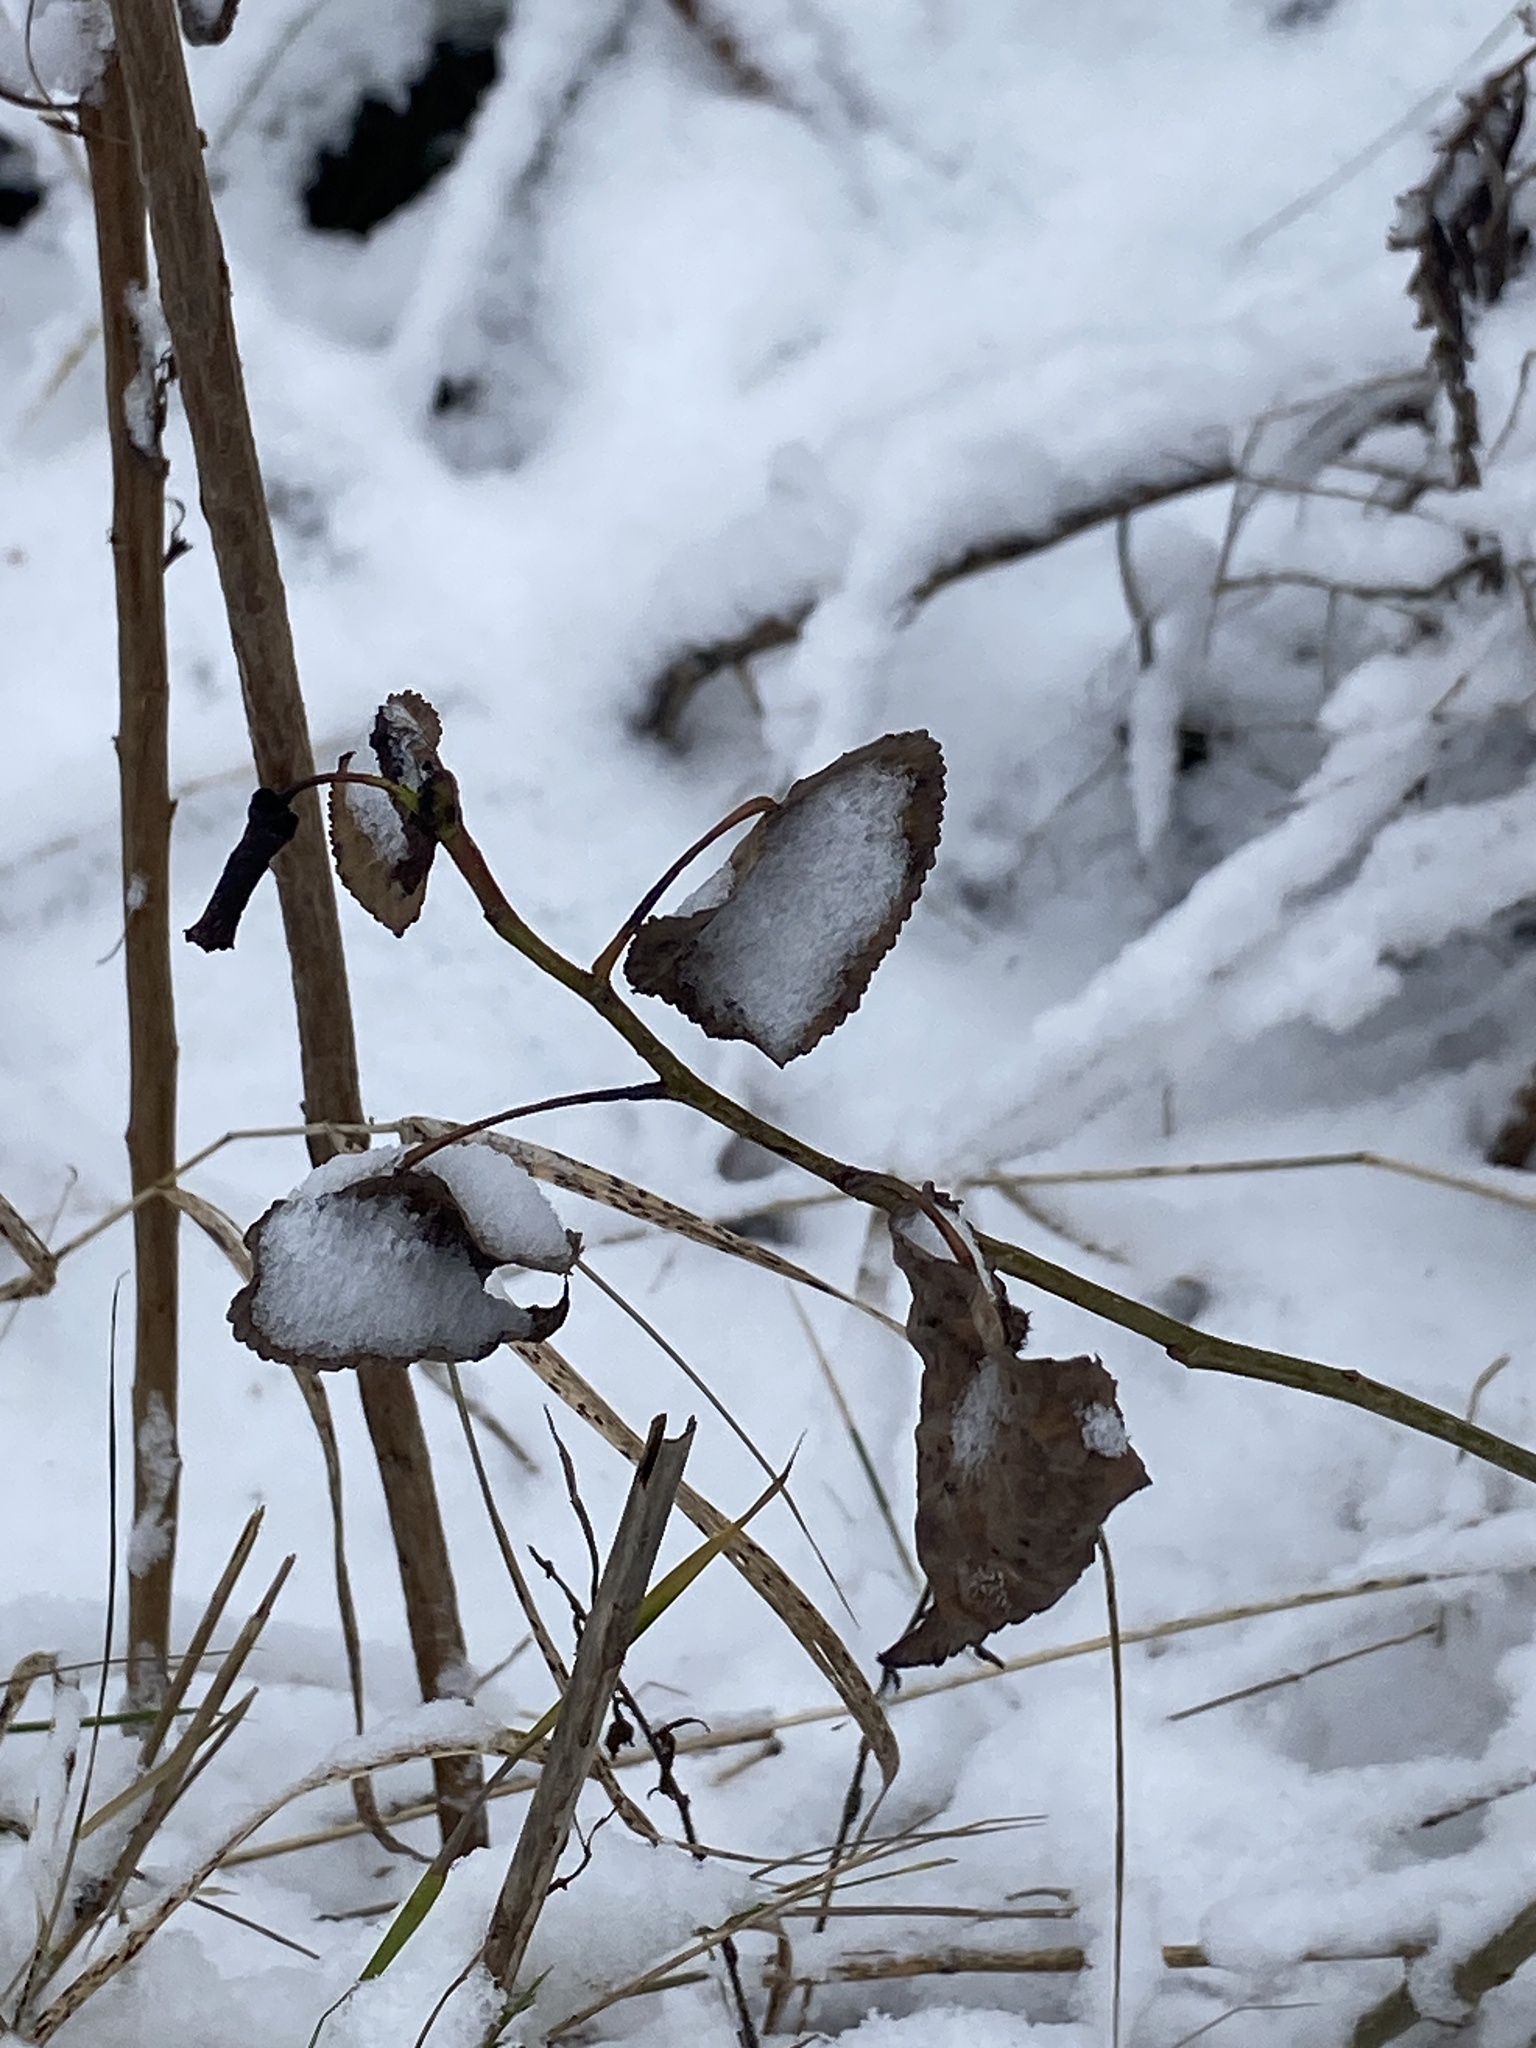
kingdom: Plantae
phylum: Tracheophyta
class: Magnoliopsida
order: Malpighiales
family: Salicaceae
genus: Populus
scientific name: Populus deltoides
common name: Eastern cottonwood
